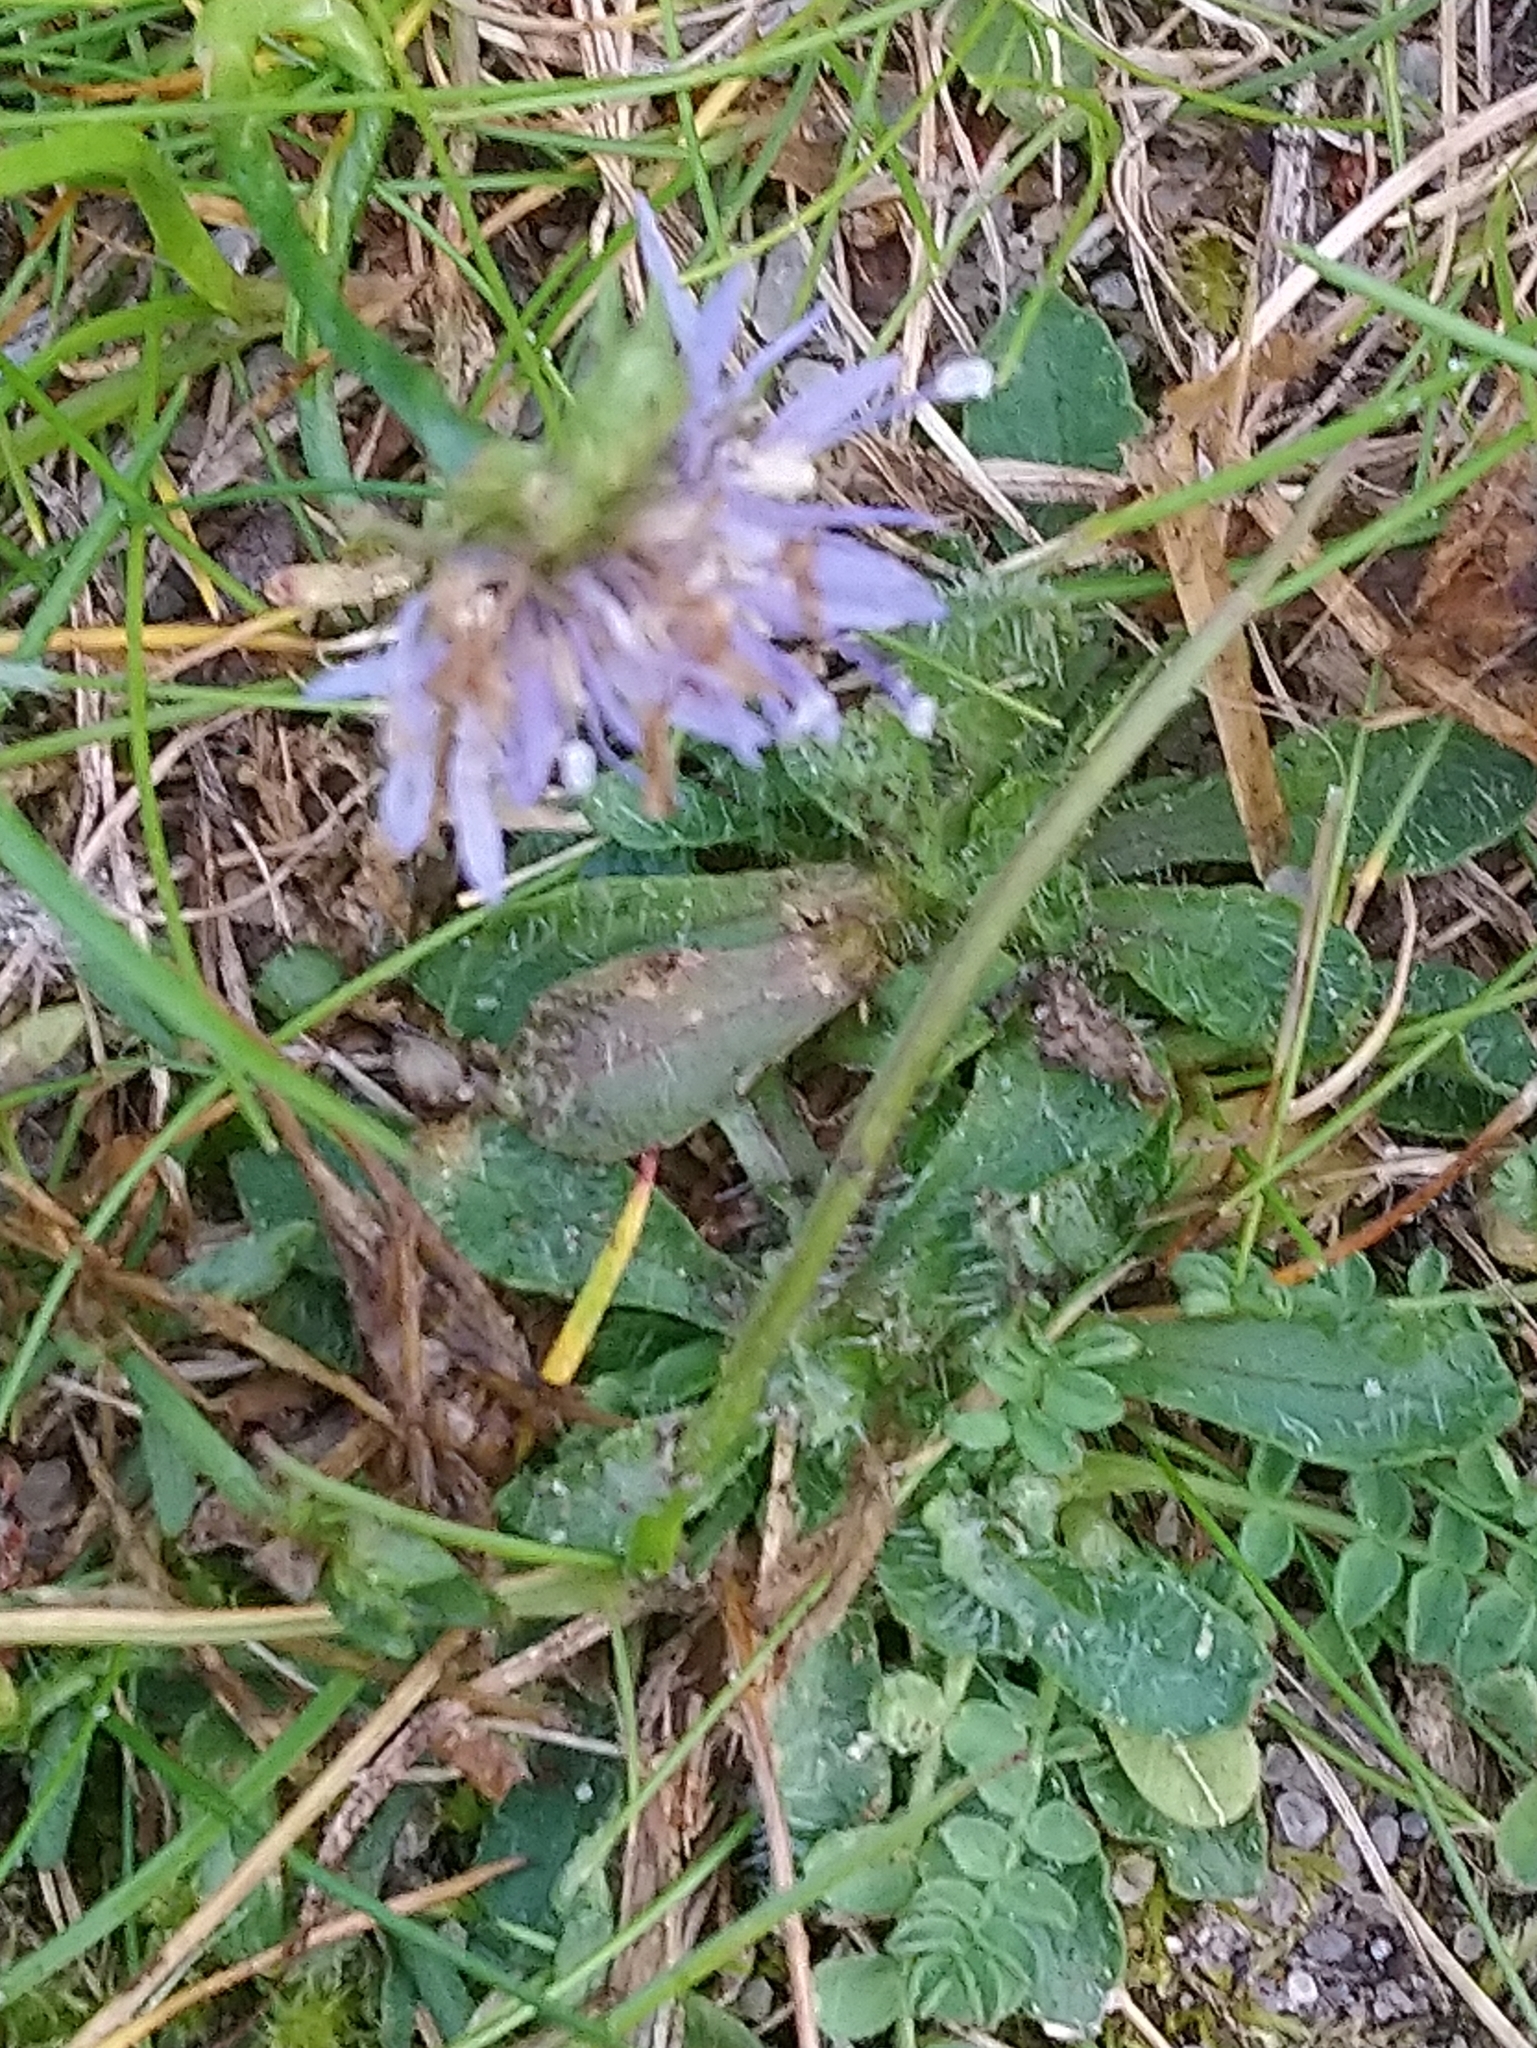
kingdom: Plantae
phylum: Tracheophyta
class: Magnoliopsida
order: Asterales
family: Campanulaceae
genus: Jasione
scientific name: Jasione montana
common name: Sheep's-bit
